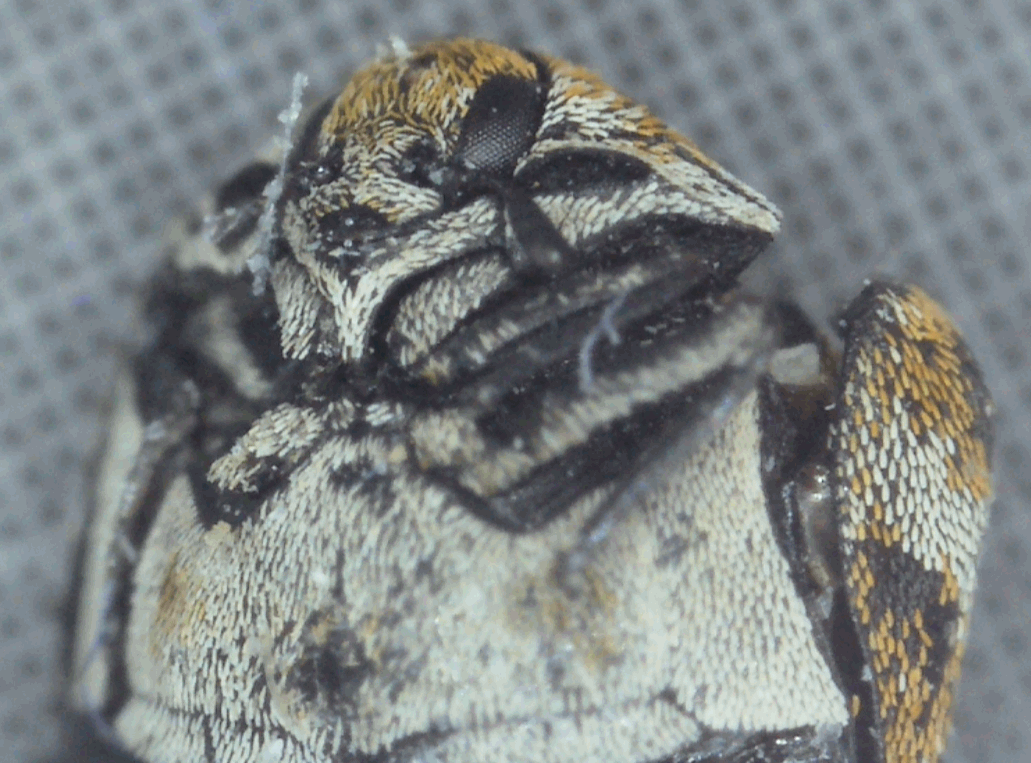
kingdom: Animalia
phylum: Arthropoda
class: Insecta
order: Coleoptera
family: Dermestidae
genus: Anthrenus
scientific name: Anthrenus verbasci
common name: Varied carpet beetle
